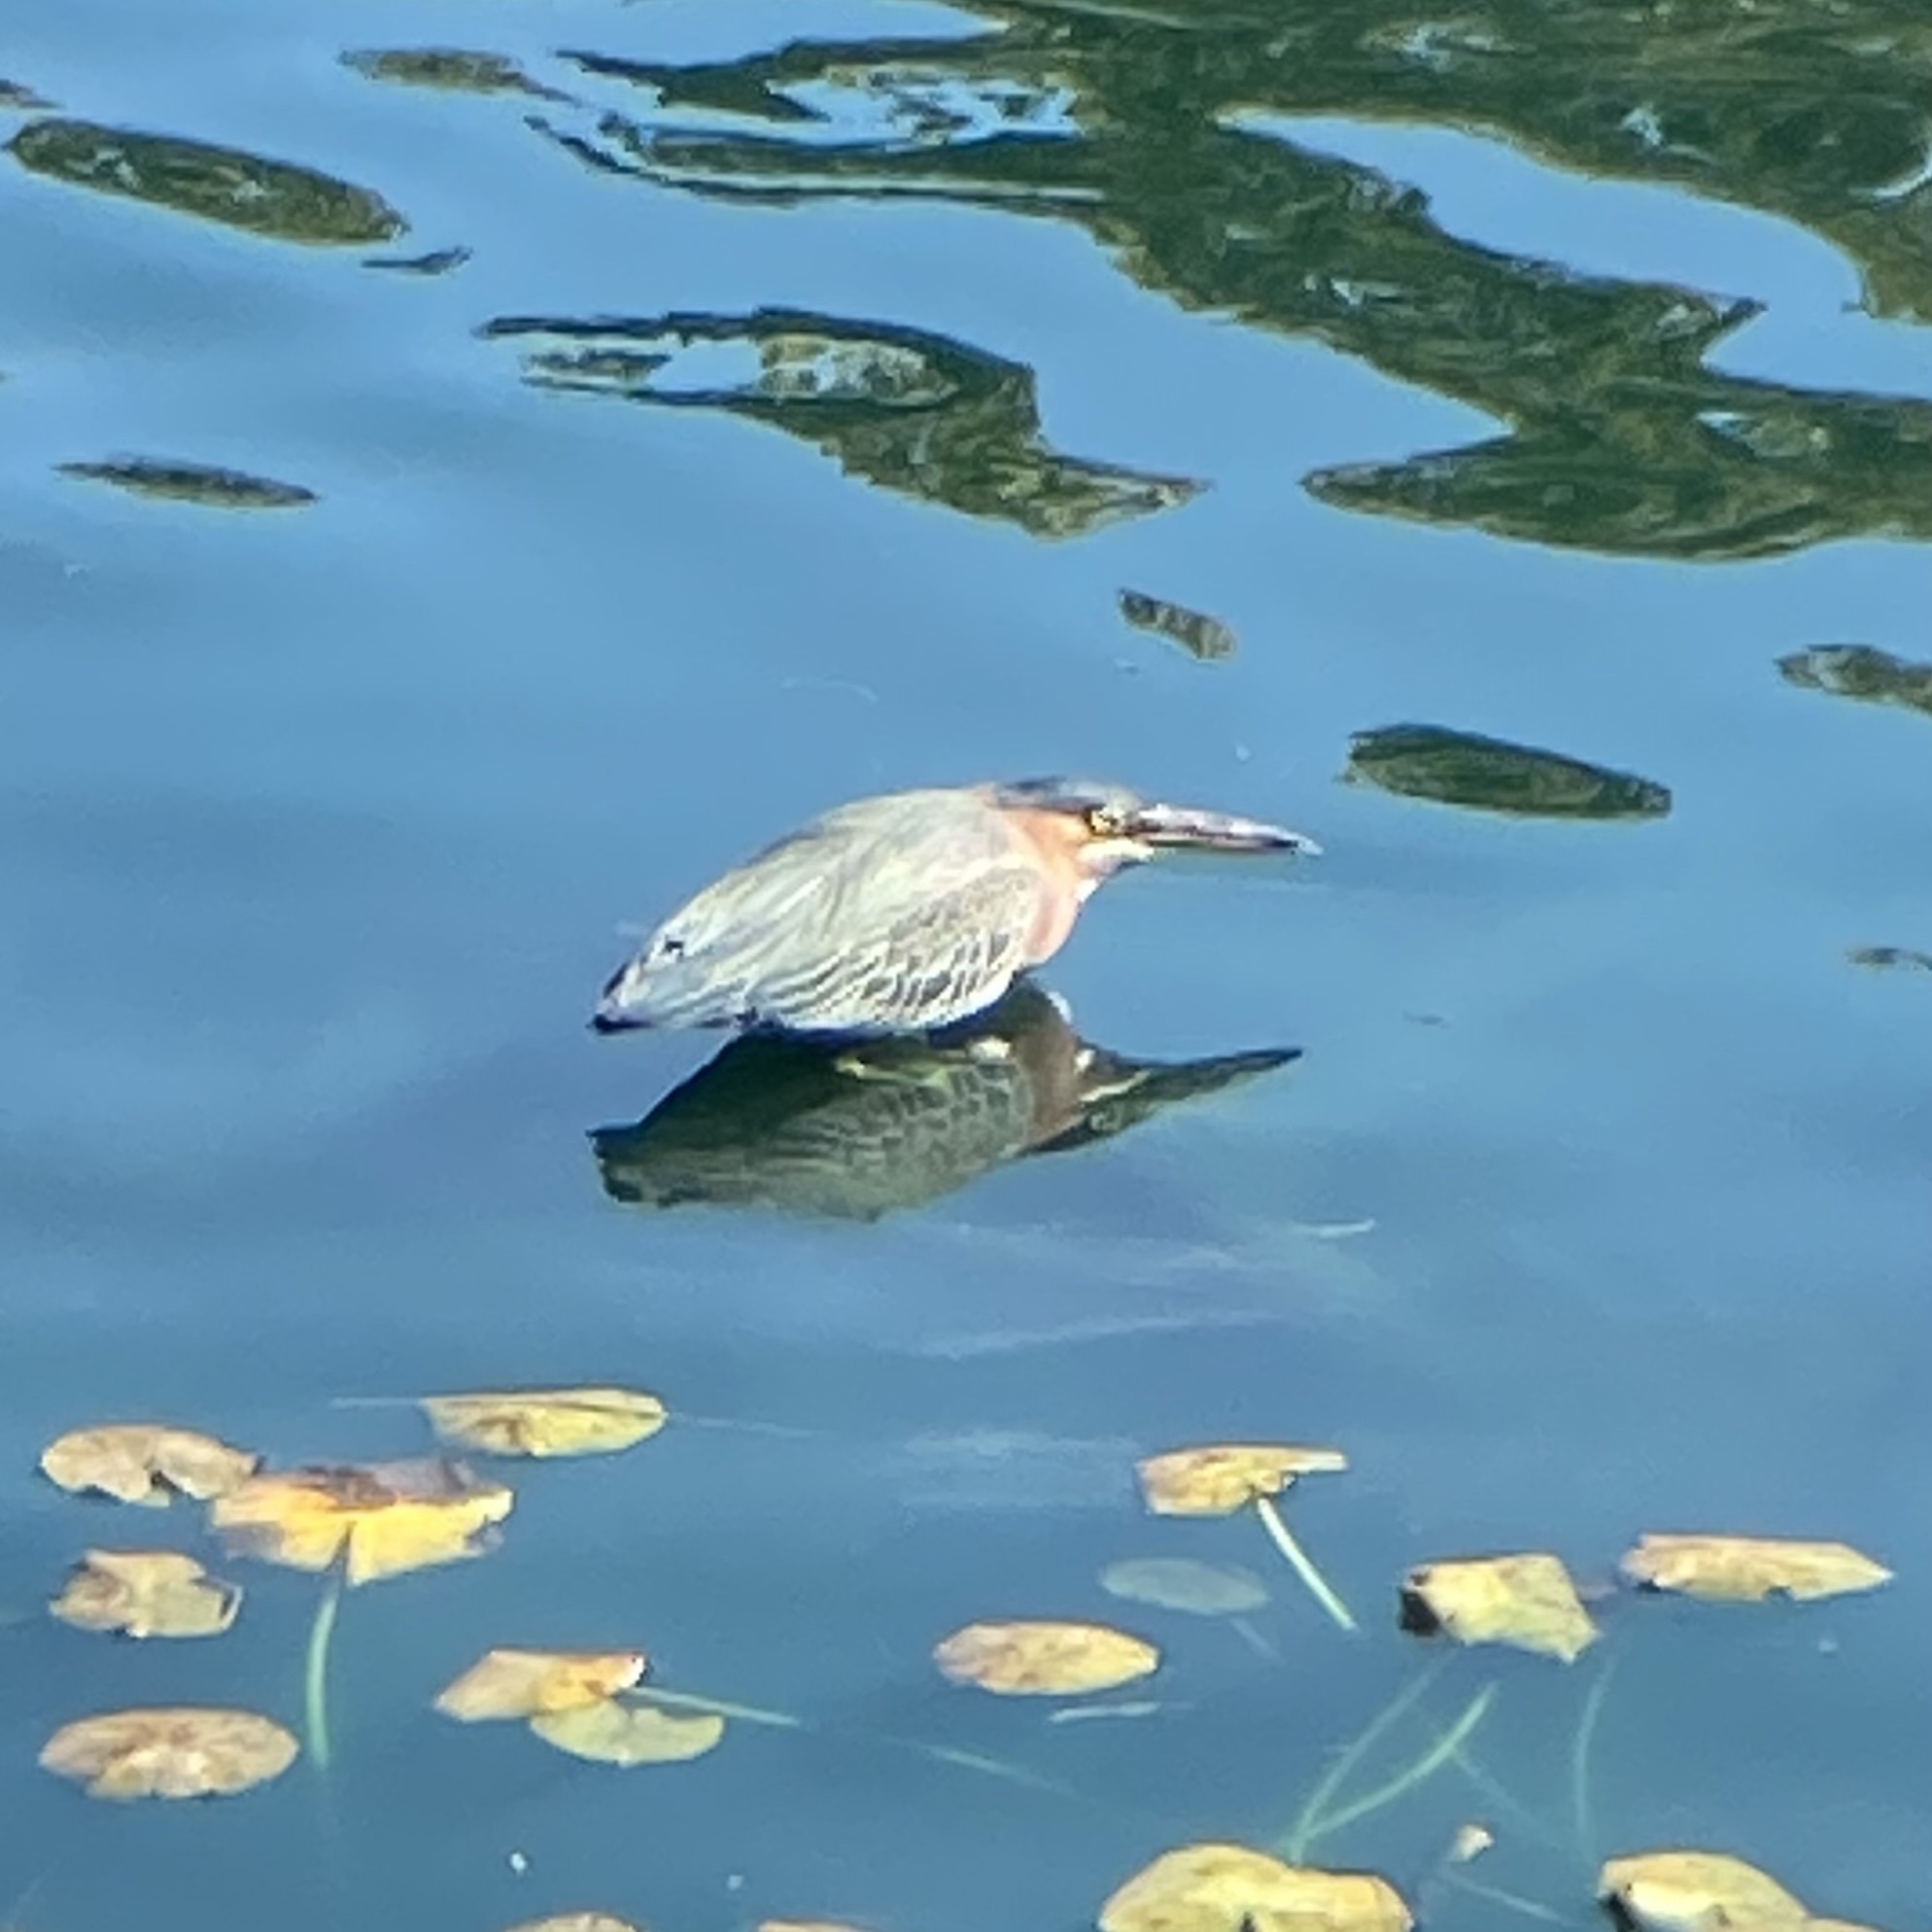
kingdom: Animalia
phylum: Chordata
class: Aves
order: Pelecaniformes
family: Ardeidae
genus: Butorides
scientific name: Butorides virescens
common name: Green heron
